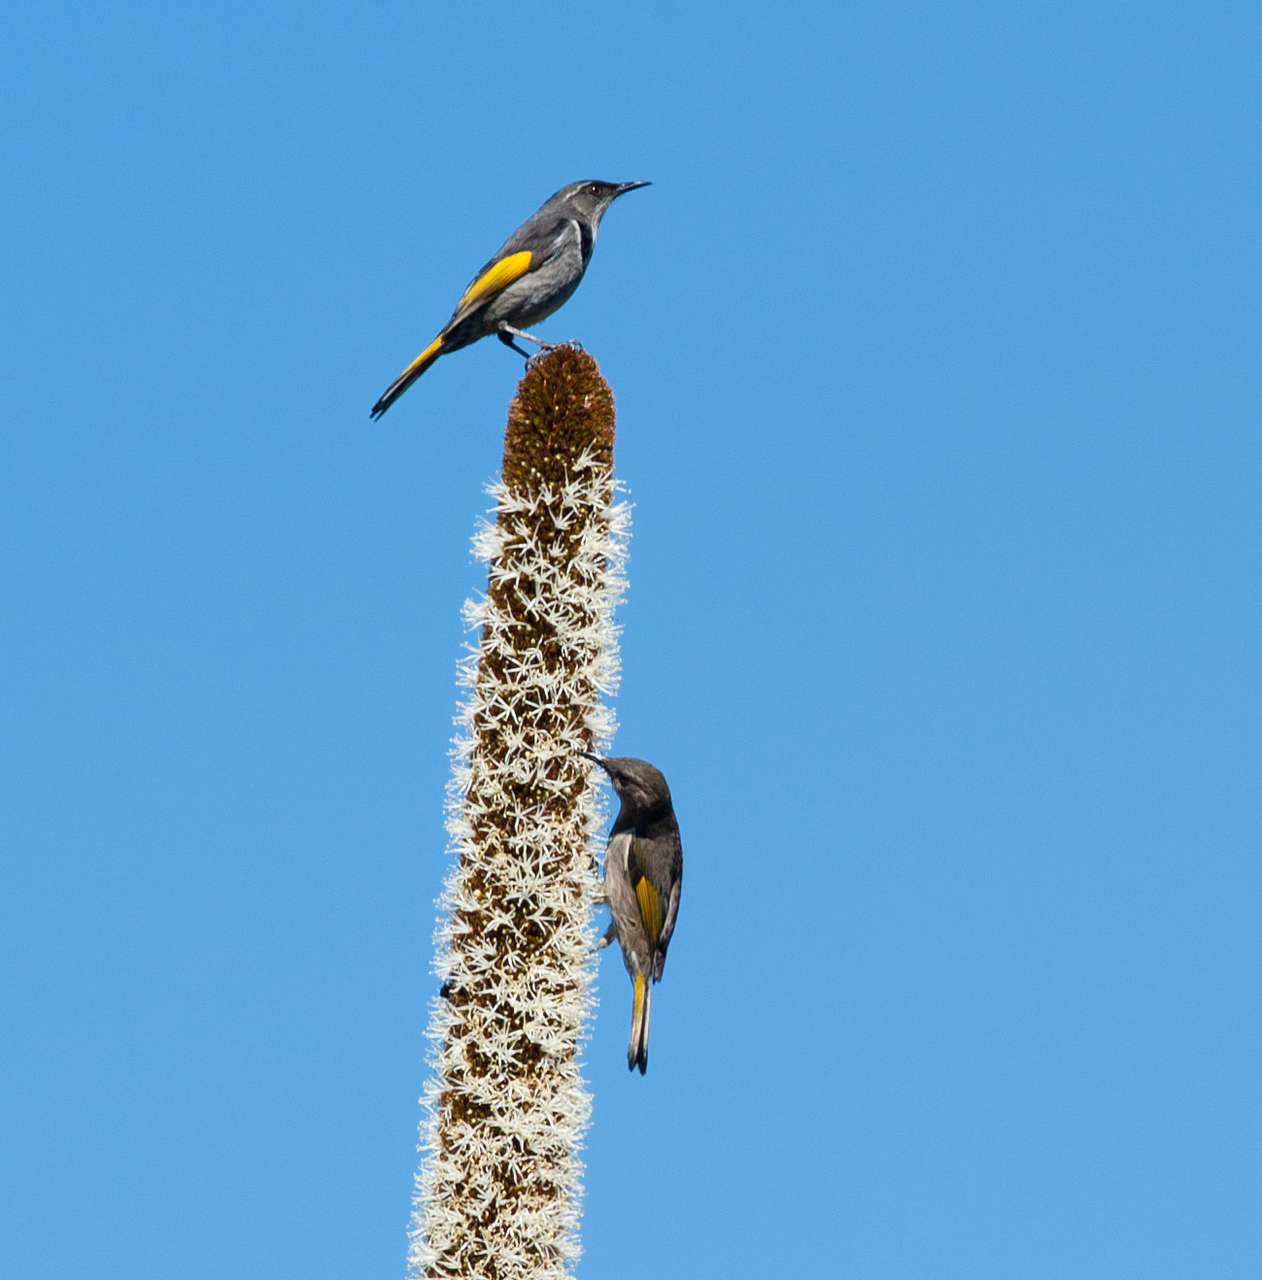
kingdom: Plantae
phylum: Tracheophyta
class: Liliopsida
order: Asparagales
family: Asphodelaceae
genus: Xanthorrhoea
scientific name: Xanthorrhoea australis
